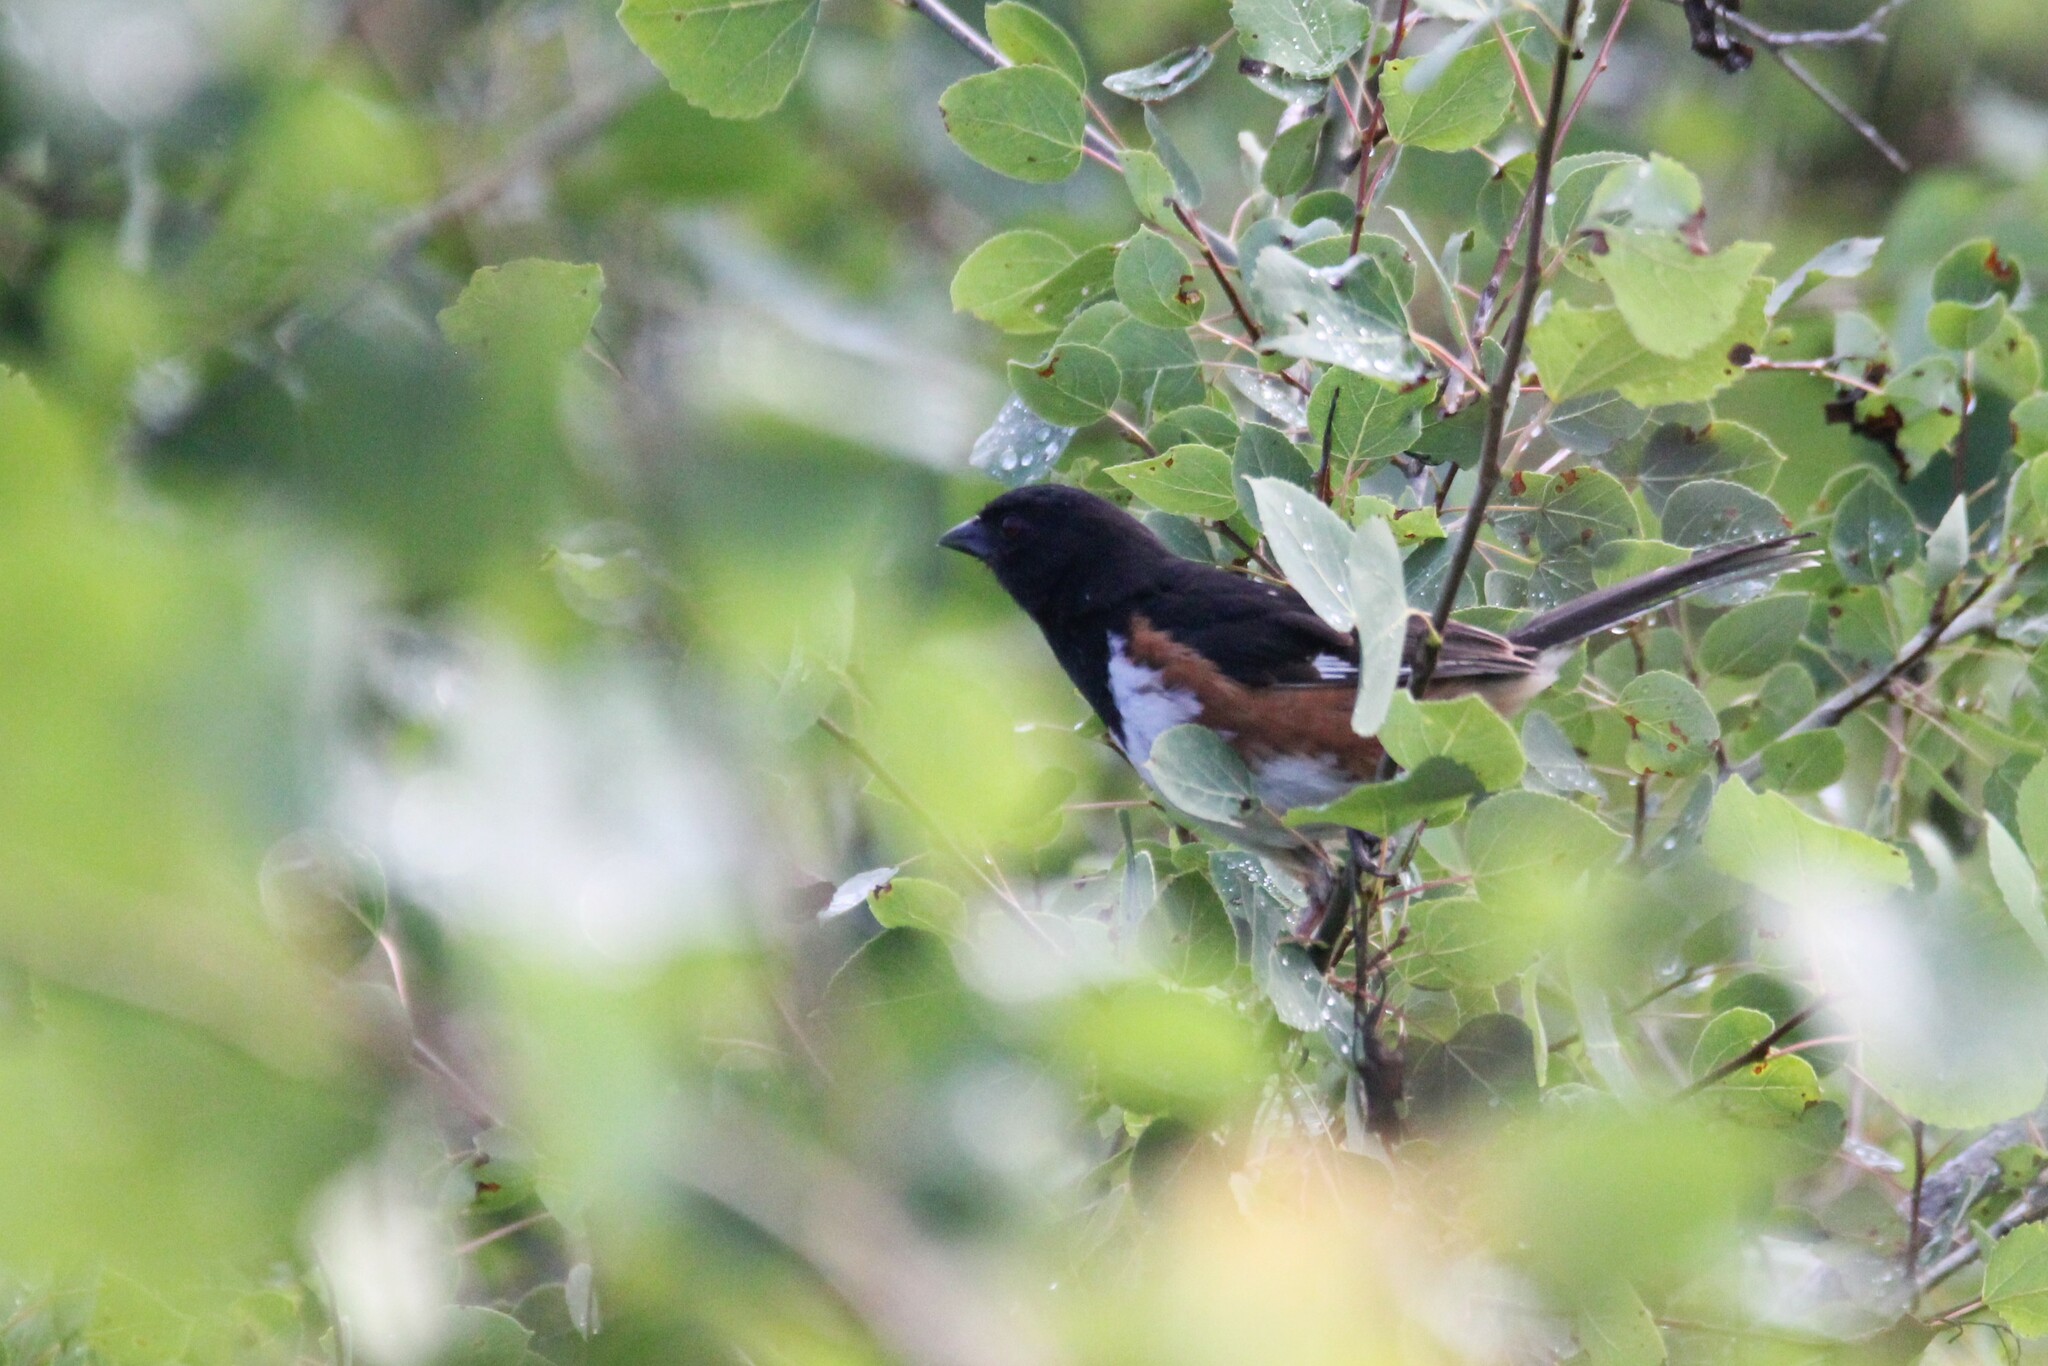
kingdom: Animalia
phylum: Chordata
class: Aves
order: Passeriformes
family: Passerellidae
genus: Pipilo
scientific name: Pipilo erythrophthalmus
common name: Eastern towhee
